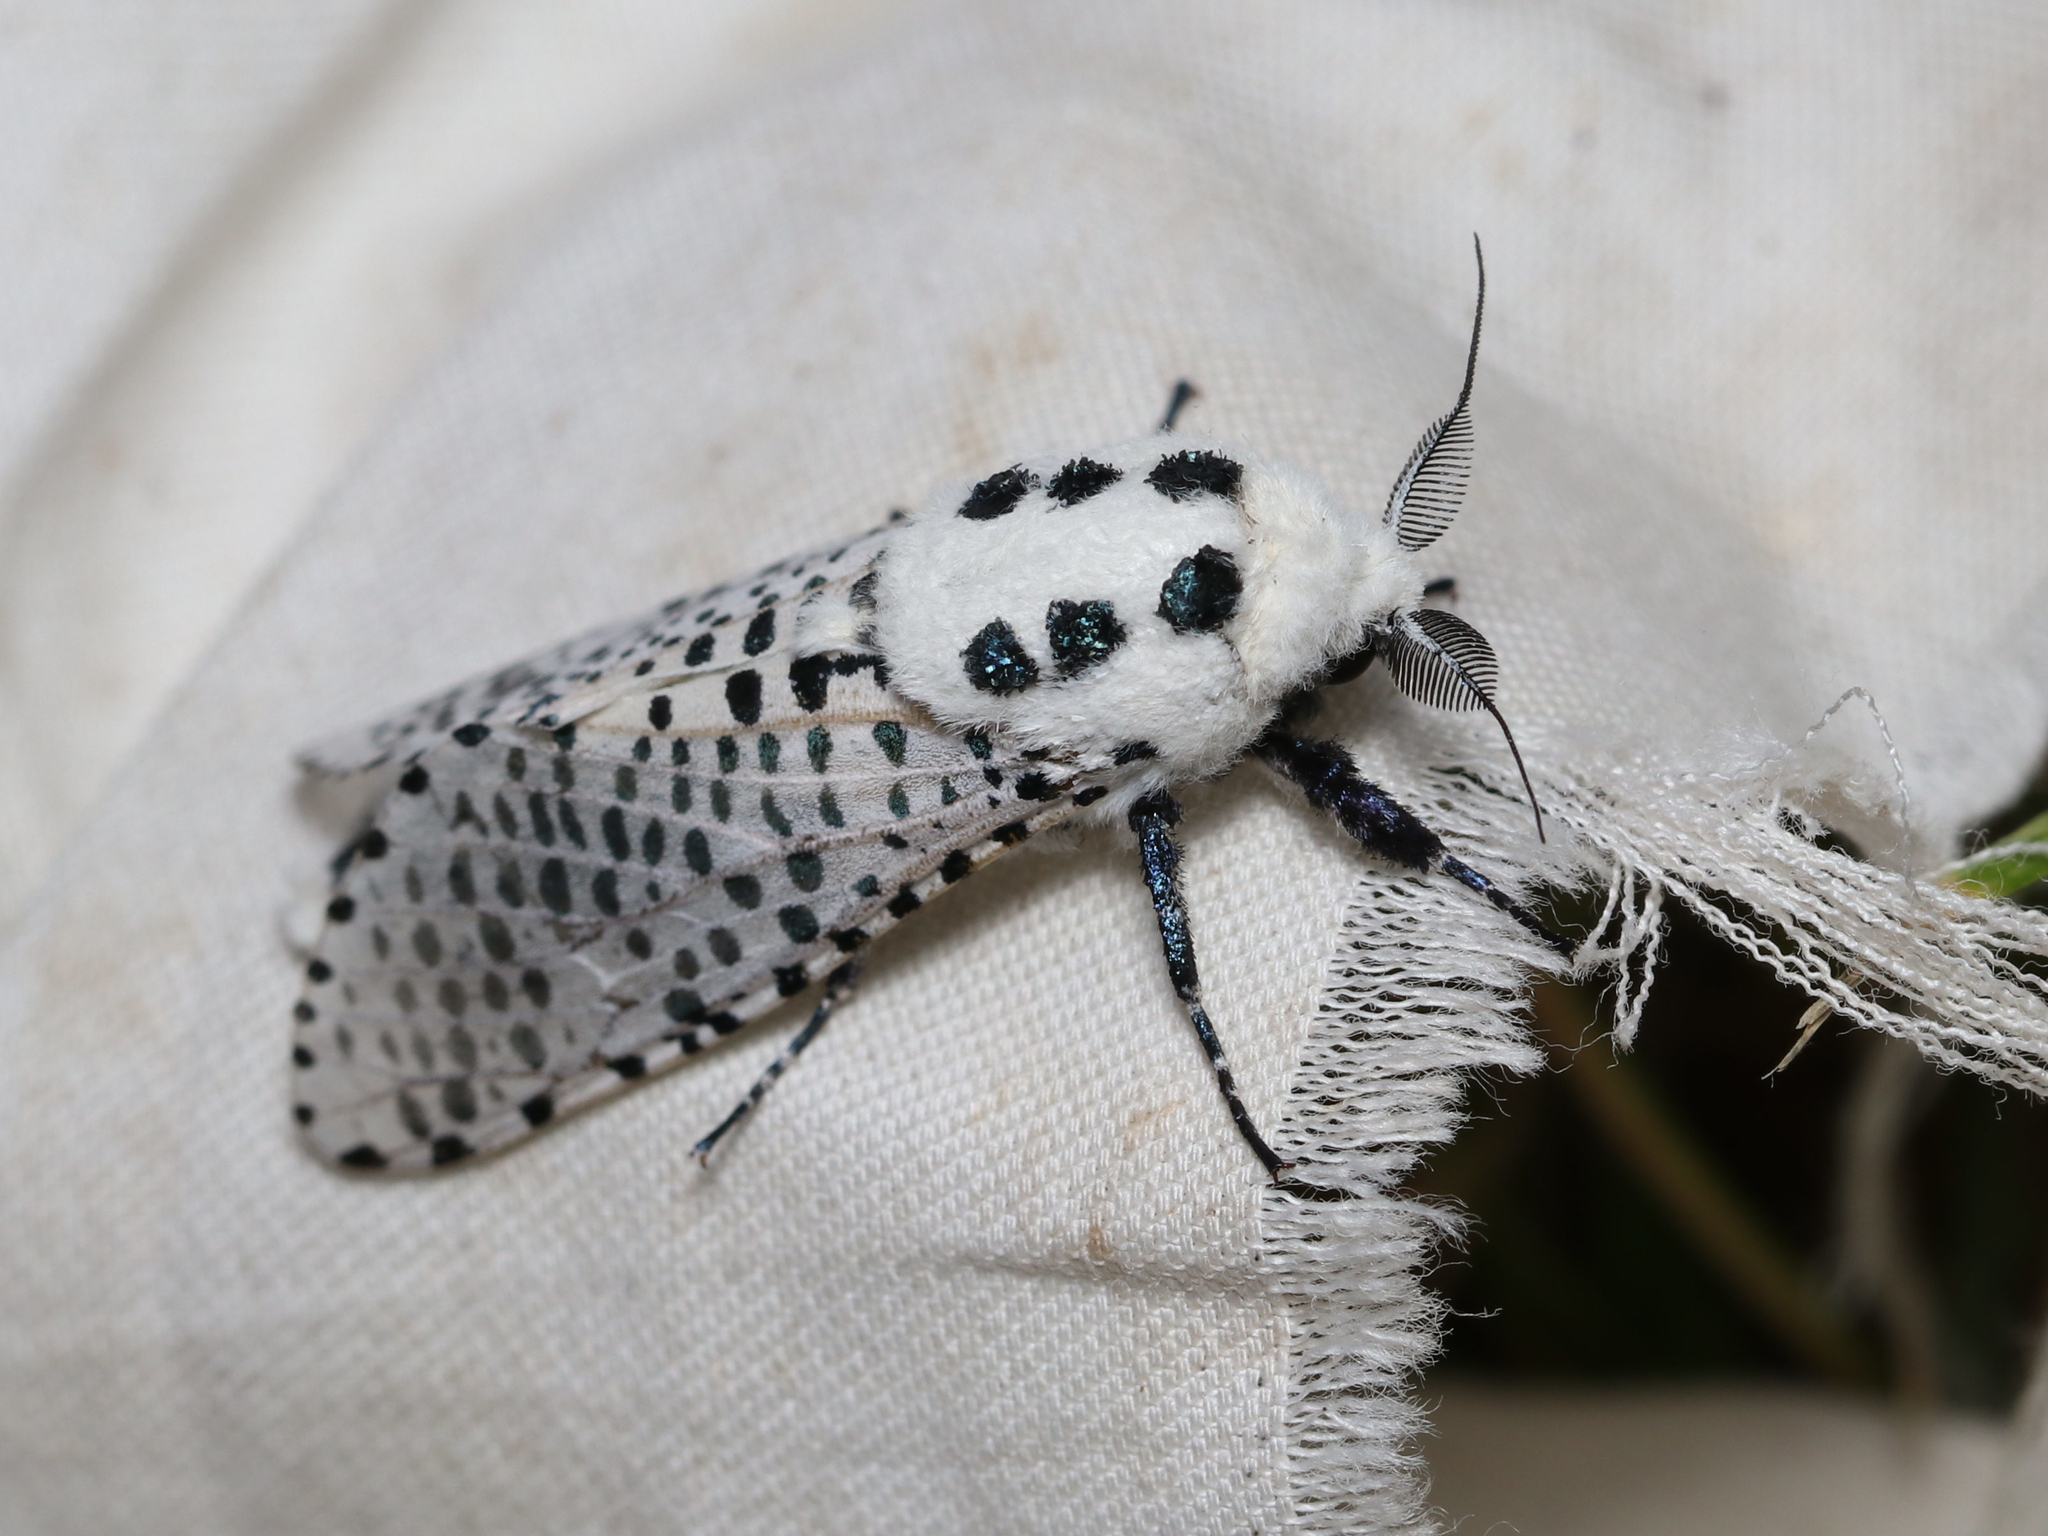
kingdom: Animalia
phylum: Arthropoda
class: Insecta
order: Lepidoptera
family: Cossidae
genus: Zeuzera
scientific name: Zeuzera pyrina
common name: Leopard moth
